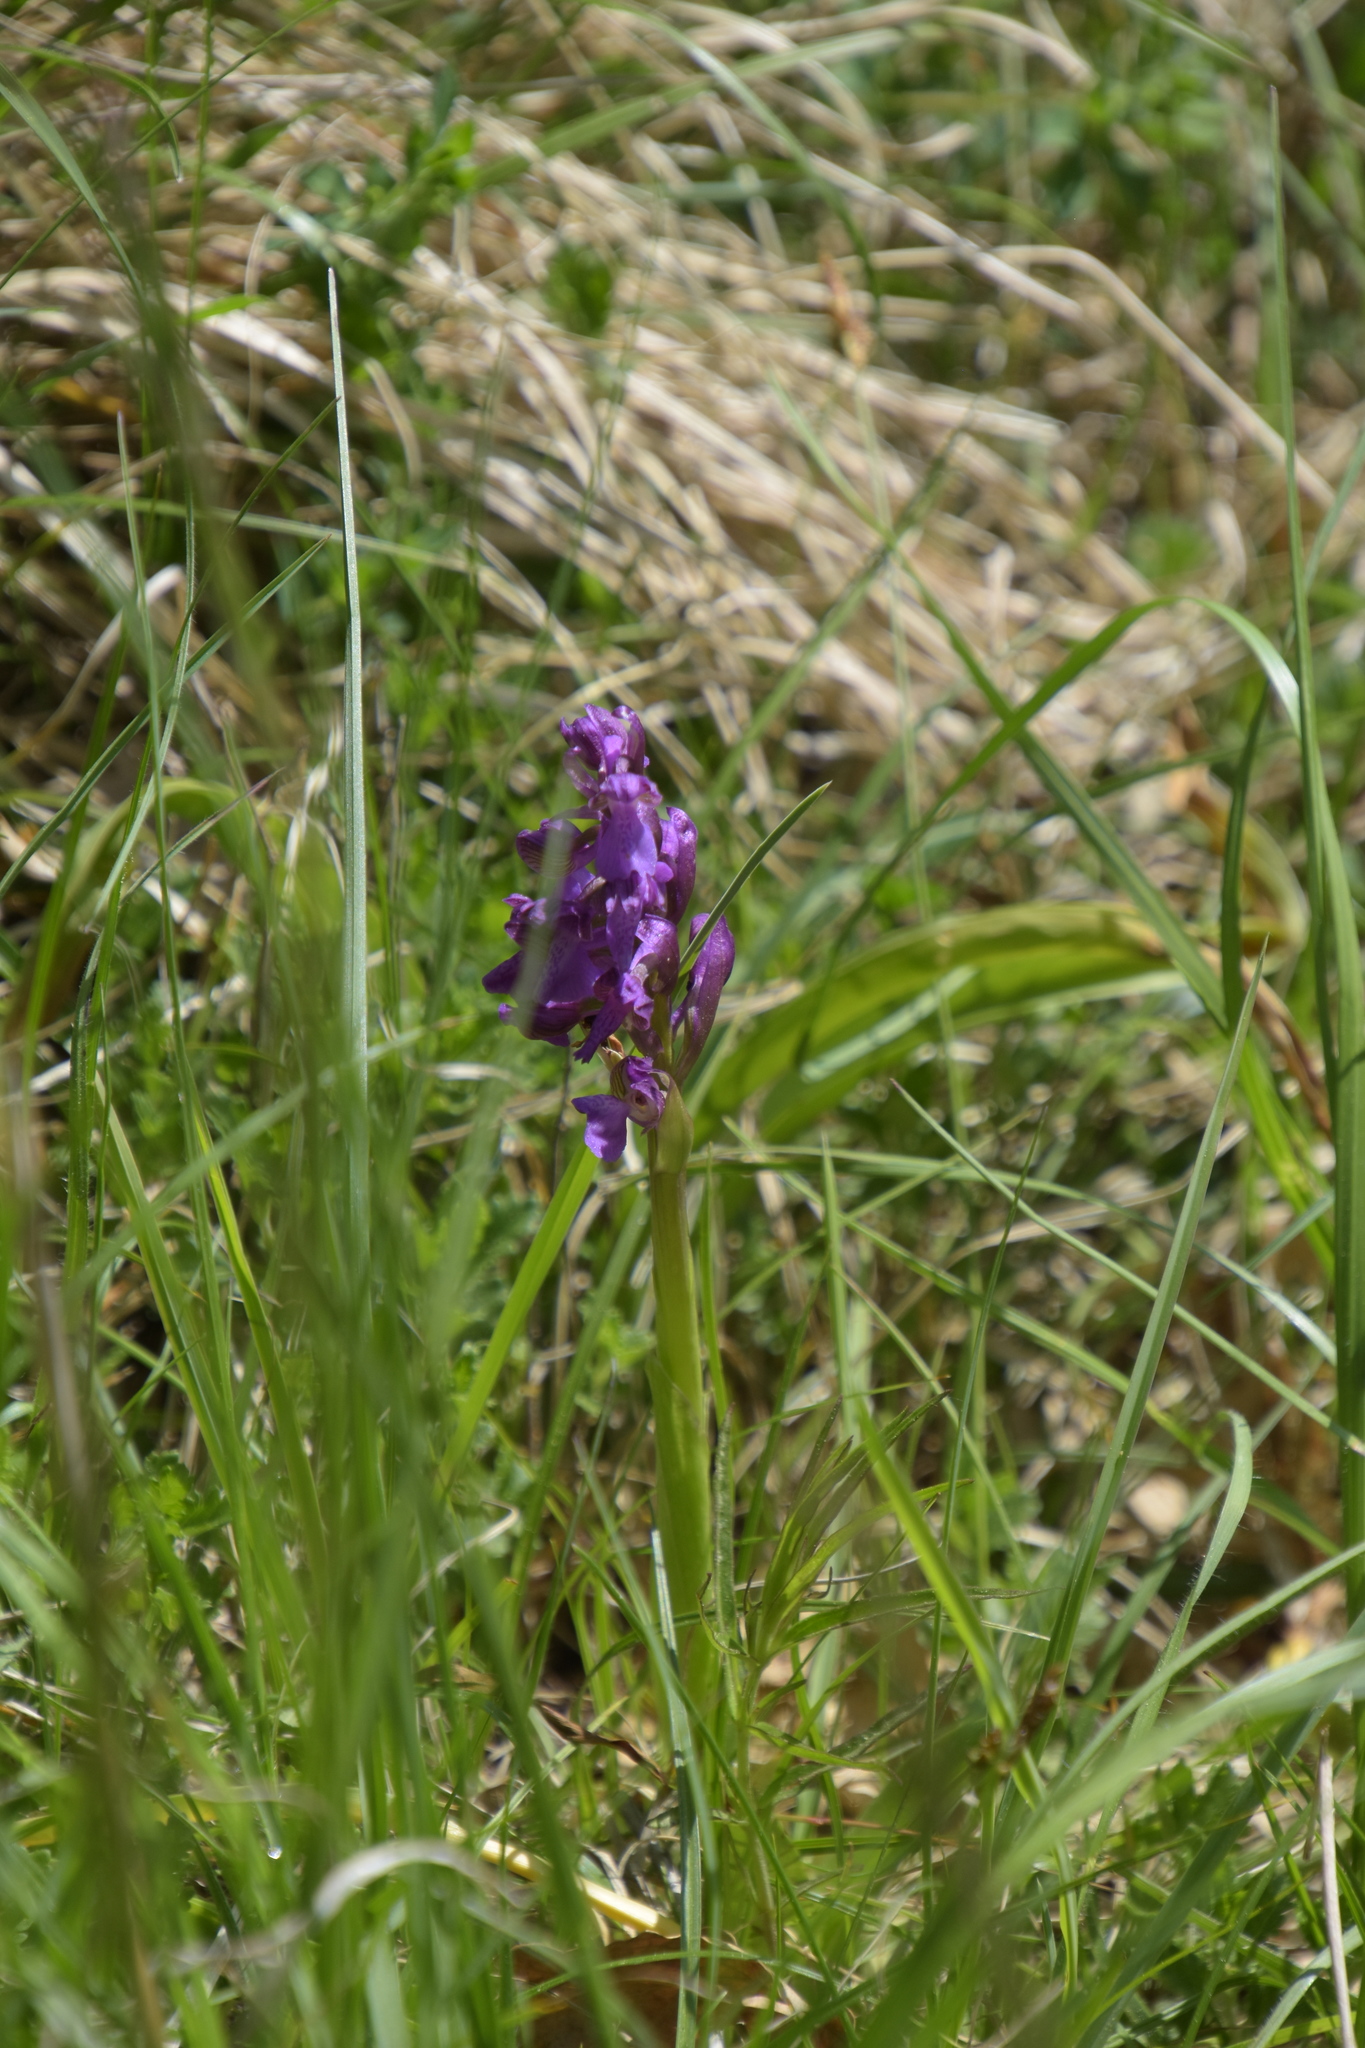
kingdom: Plantae
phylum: Tracheophyta
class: Liliopsida
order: Asparagales
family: Orchidaceae
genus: Anacamptis
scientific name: Anacamptis morio
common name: Green-winged orchid
